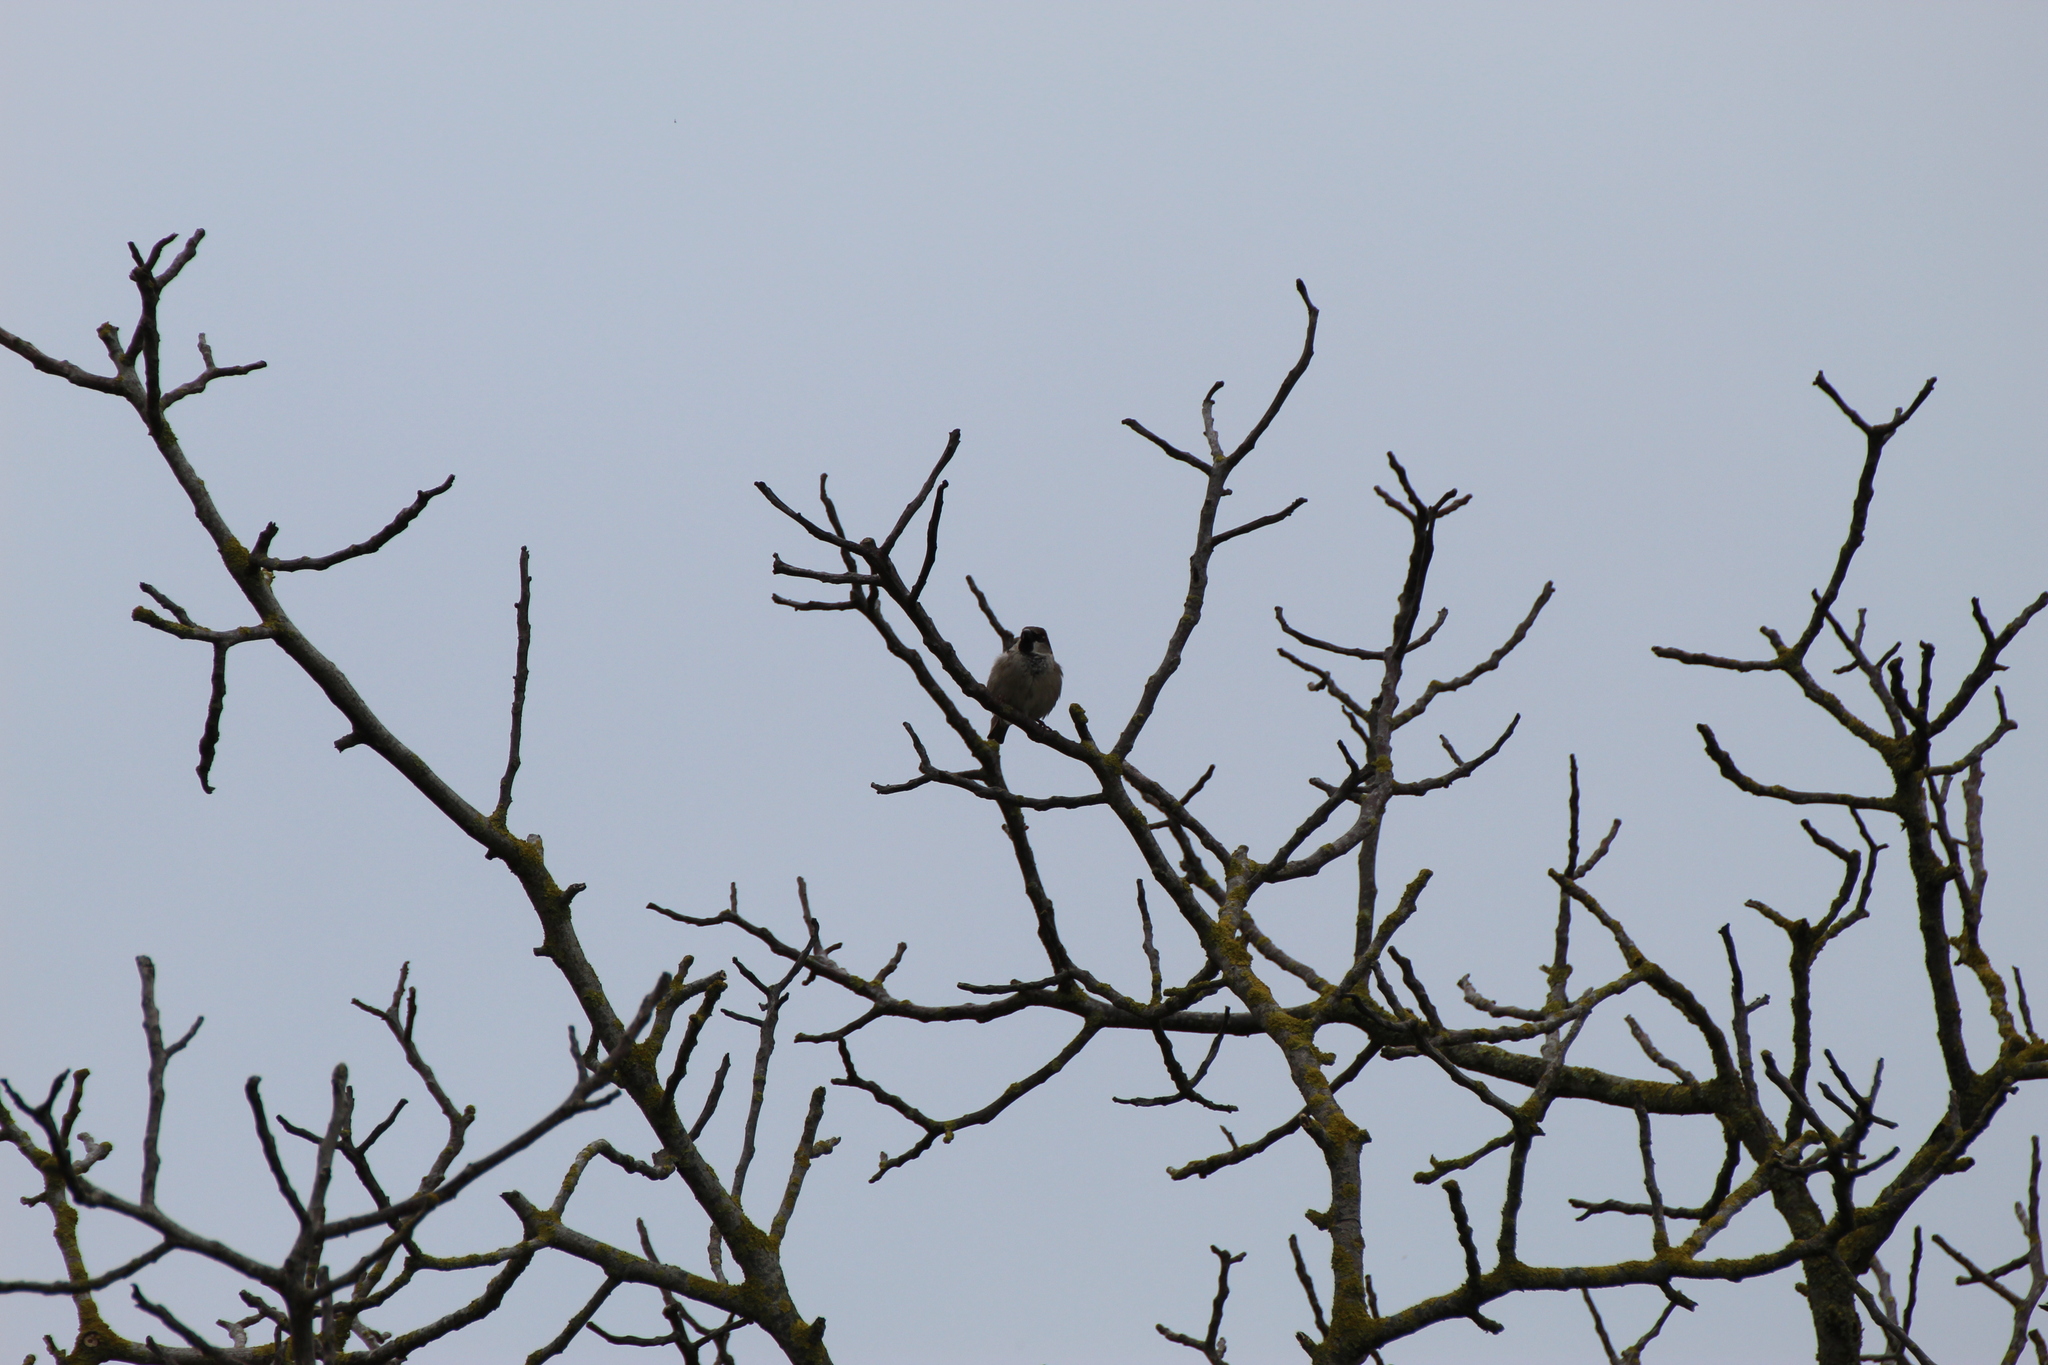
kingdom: Animalia
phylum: Chordata
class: Aves
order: Passeriformes
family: Passeridae
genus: Passer
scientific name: Passer domesticus
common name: House sparrow
